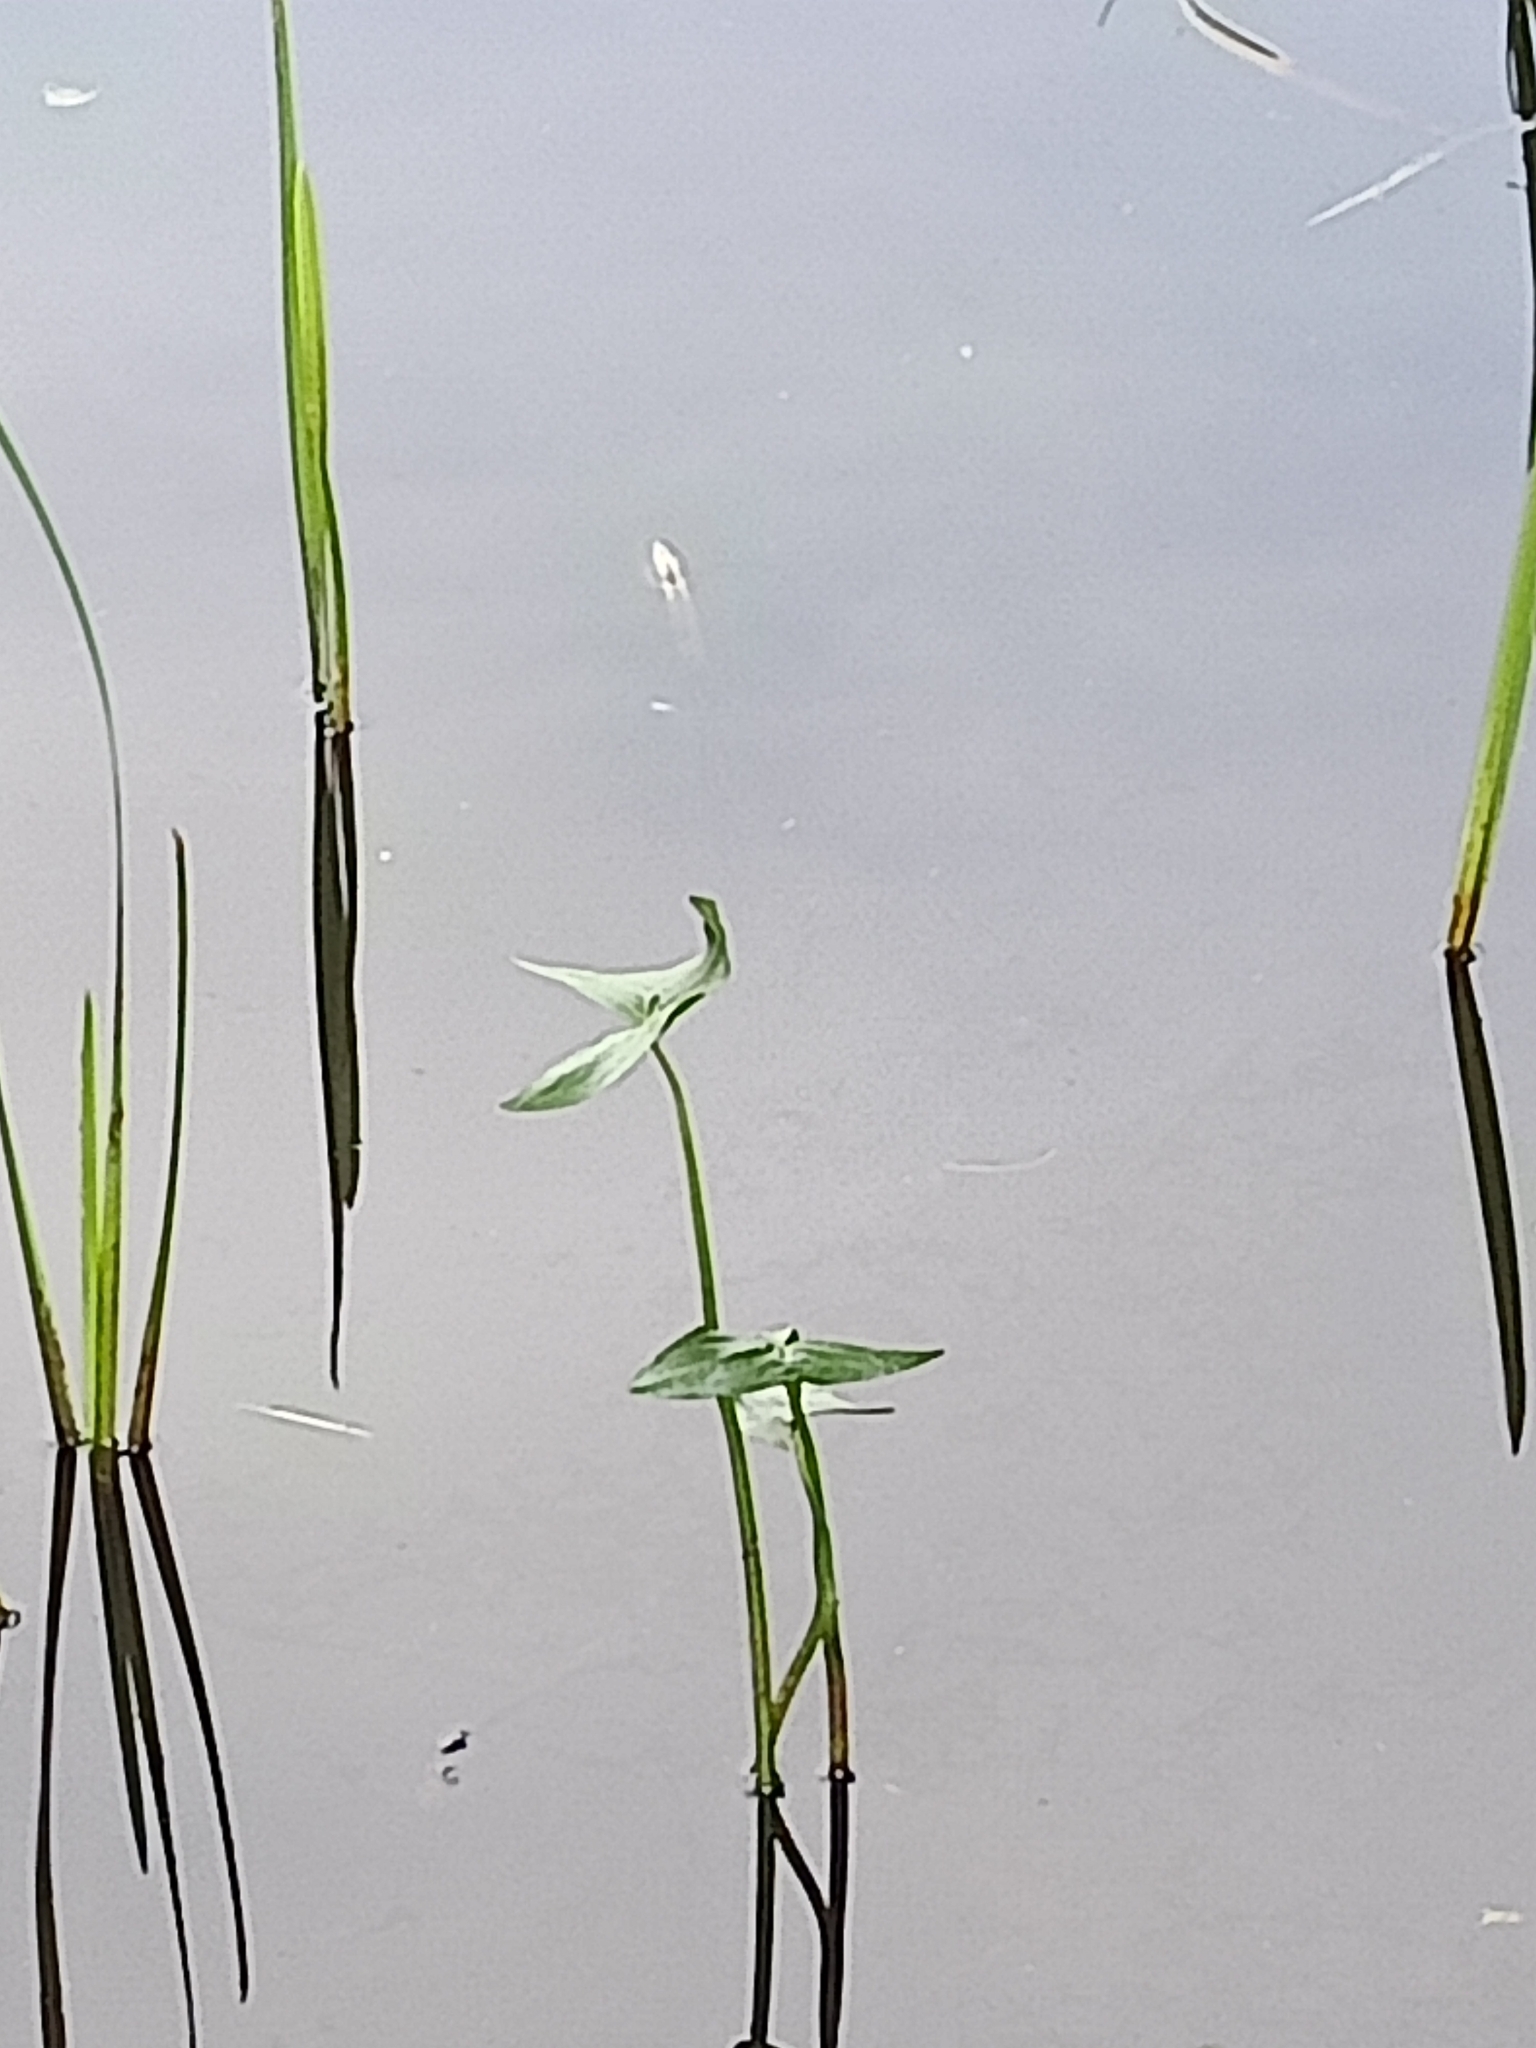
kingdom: Plantae
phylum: Tracheophyta
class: Liliopsida
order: Alismatales
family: Alismataceae
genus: Sagittaria
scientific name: Sagittaria sagittifolia
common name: Arrowhead
